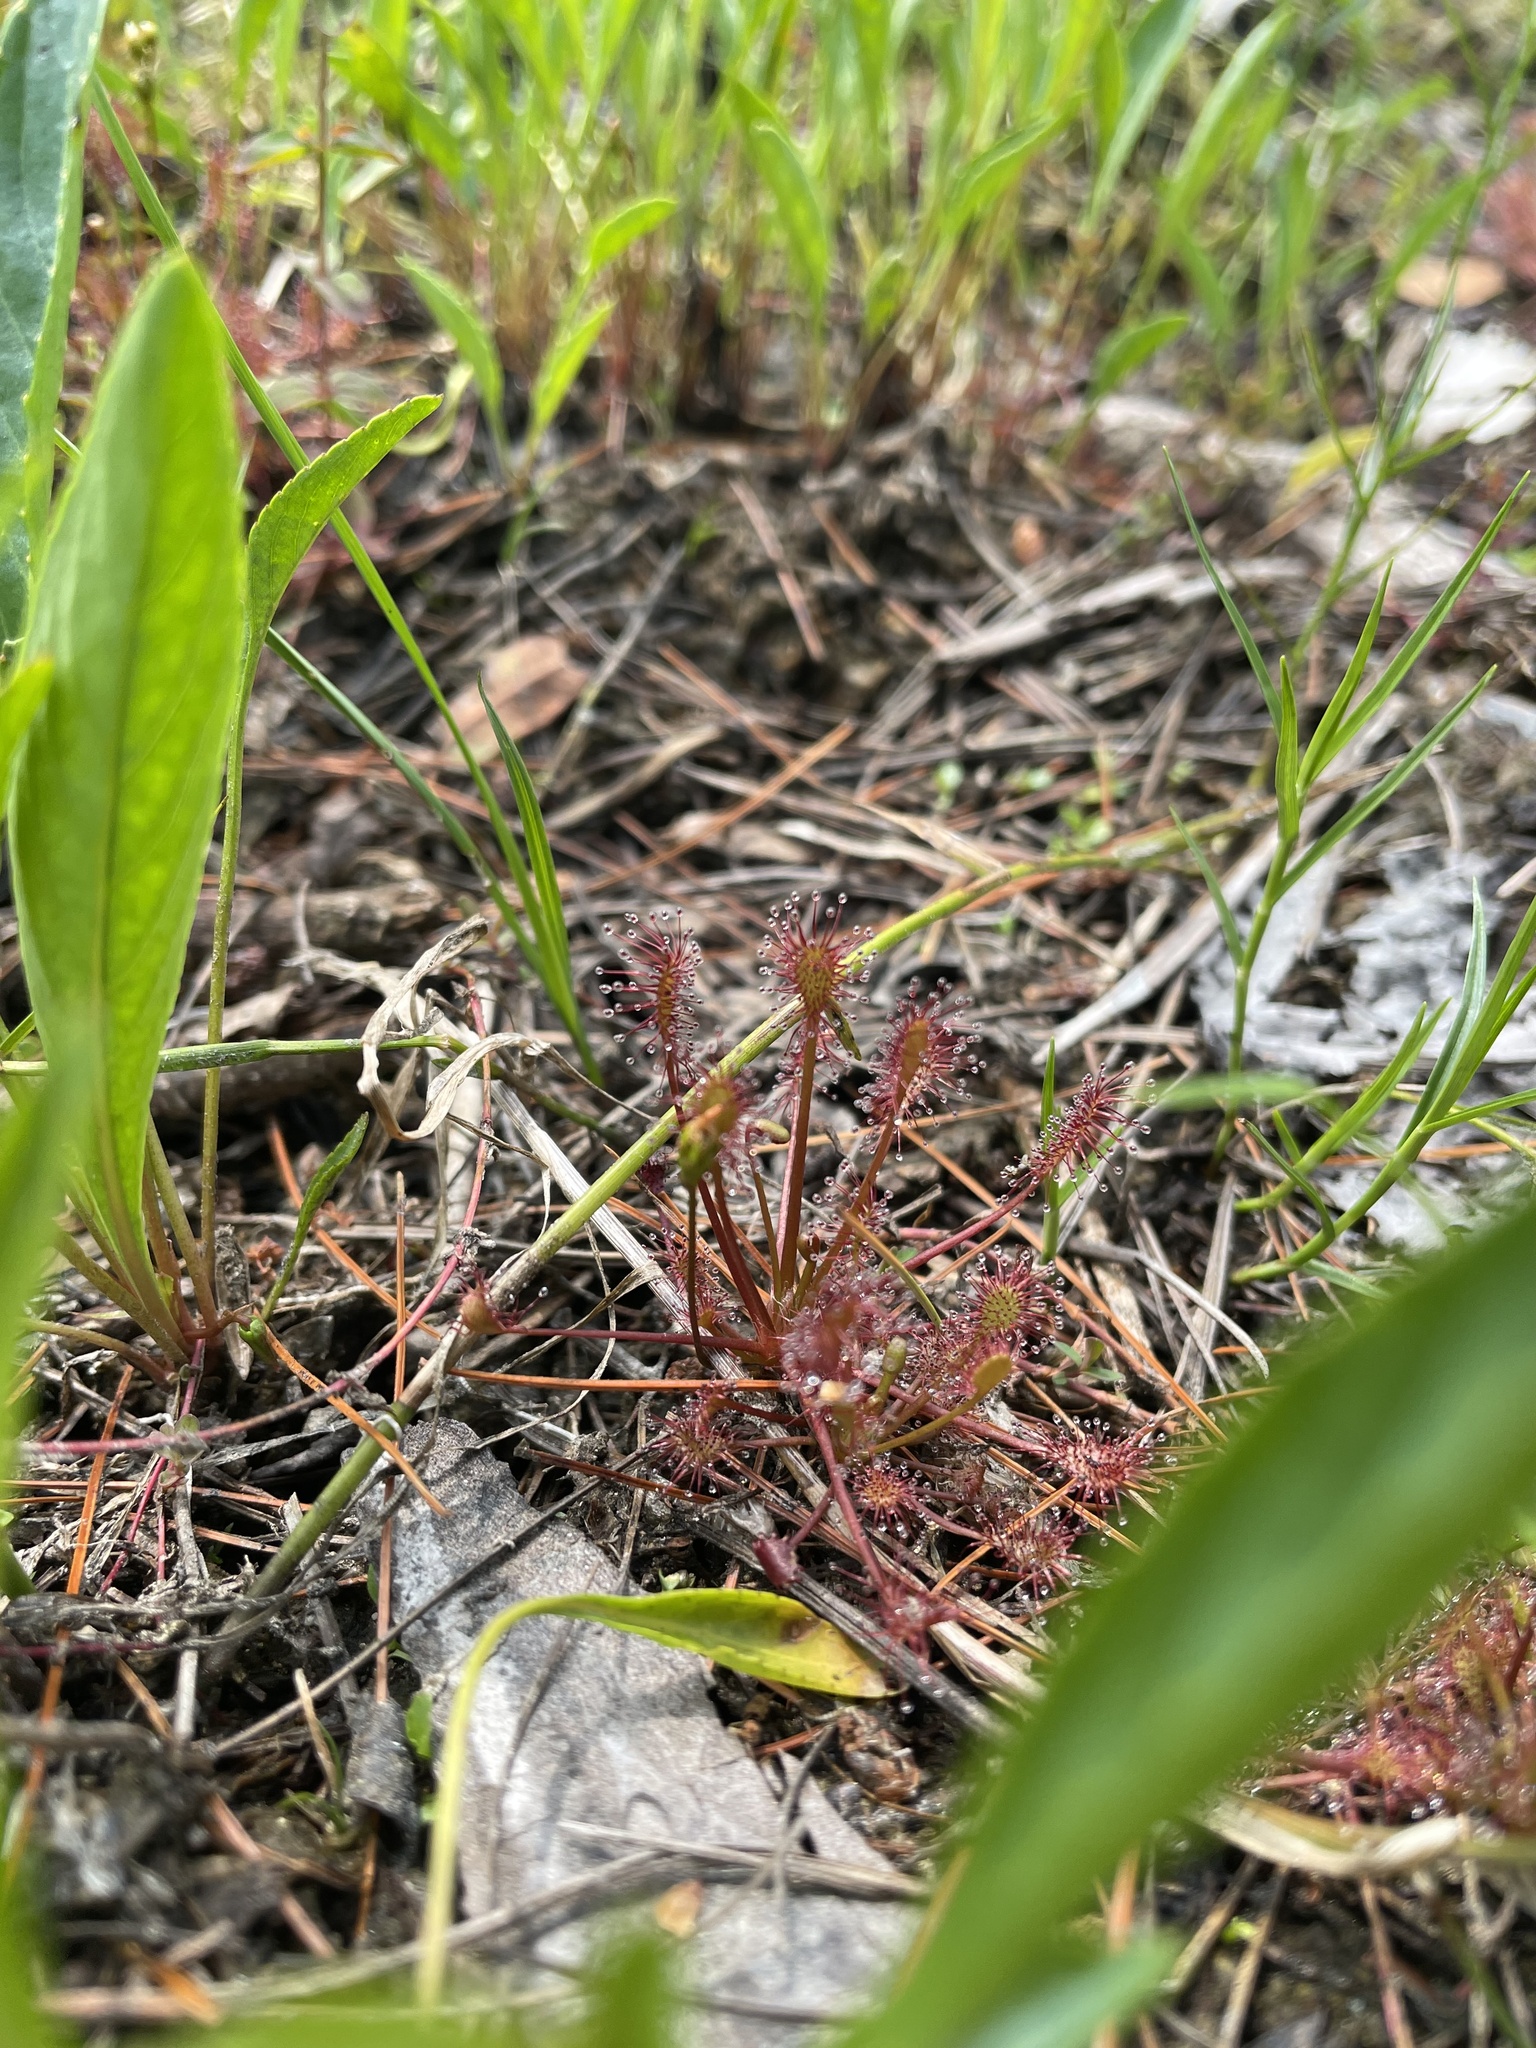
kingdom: Plantae
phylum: Tracheophyta
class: Magnoliopsida
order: Caryophyllales
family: Droseraceae
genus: Drosera
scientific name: Drosera intermedia
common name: Oblong-leaved sundew
